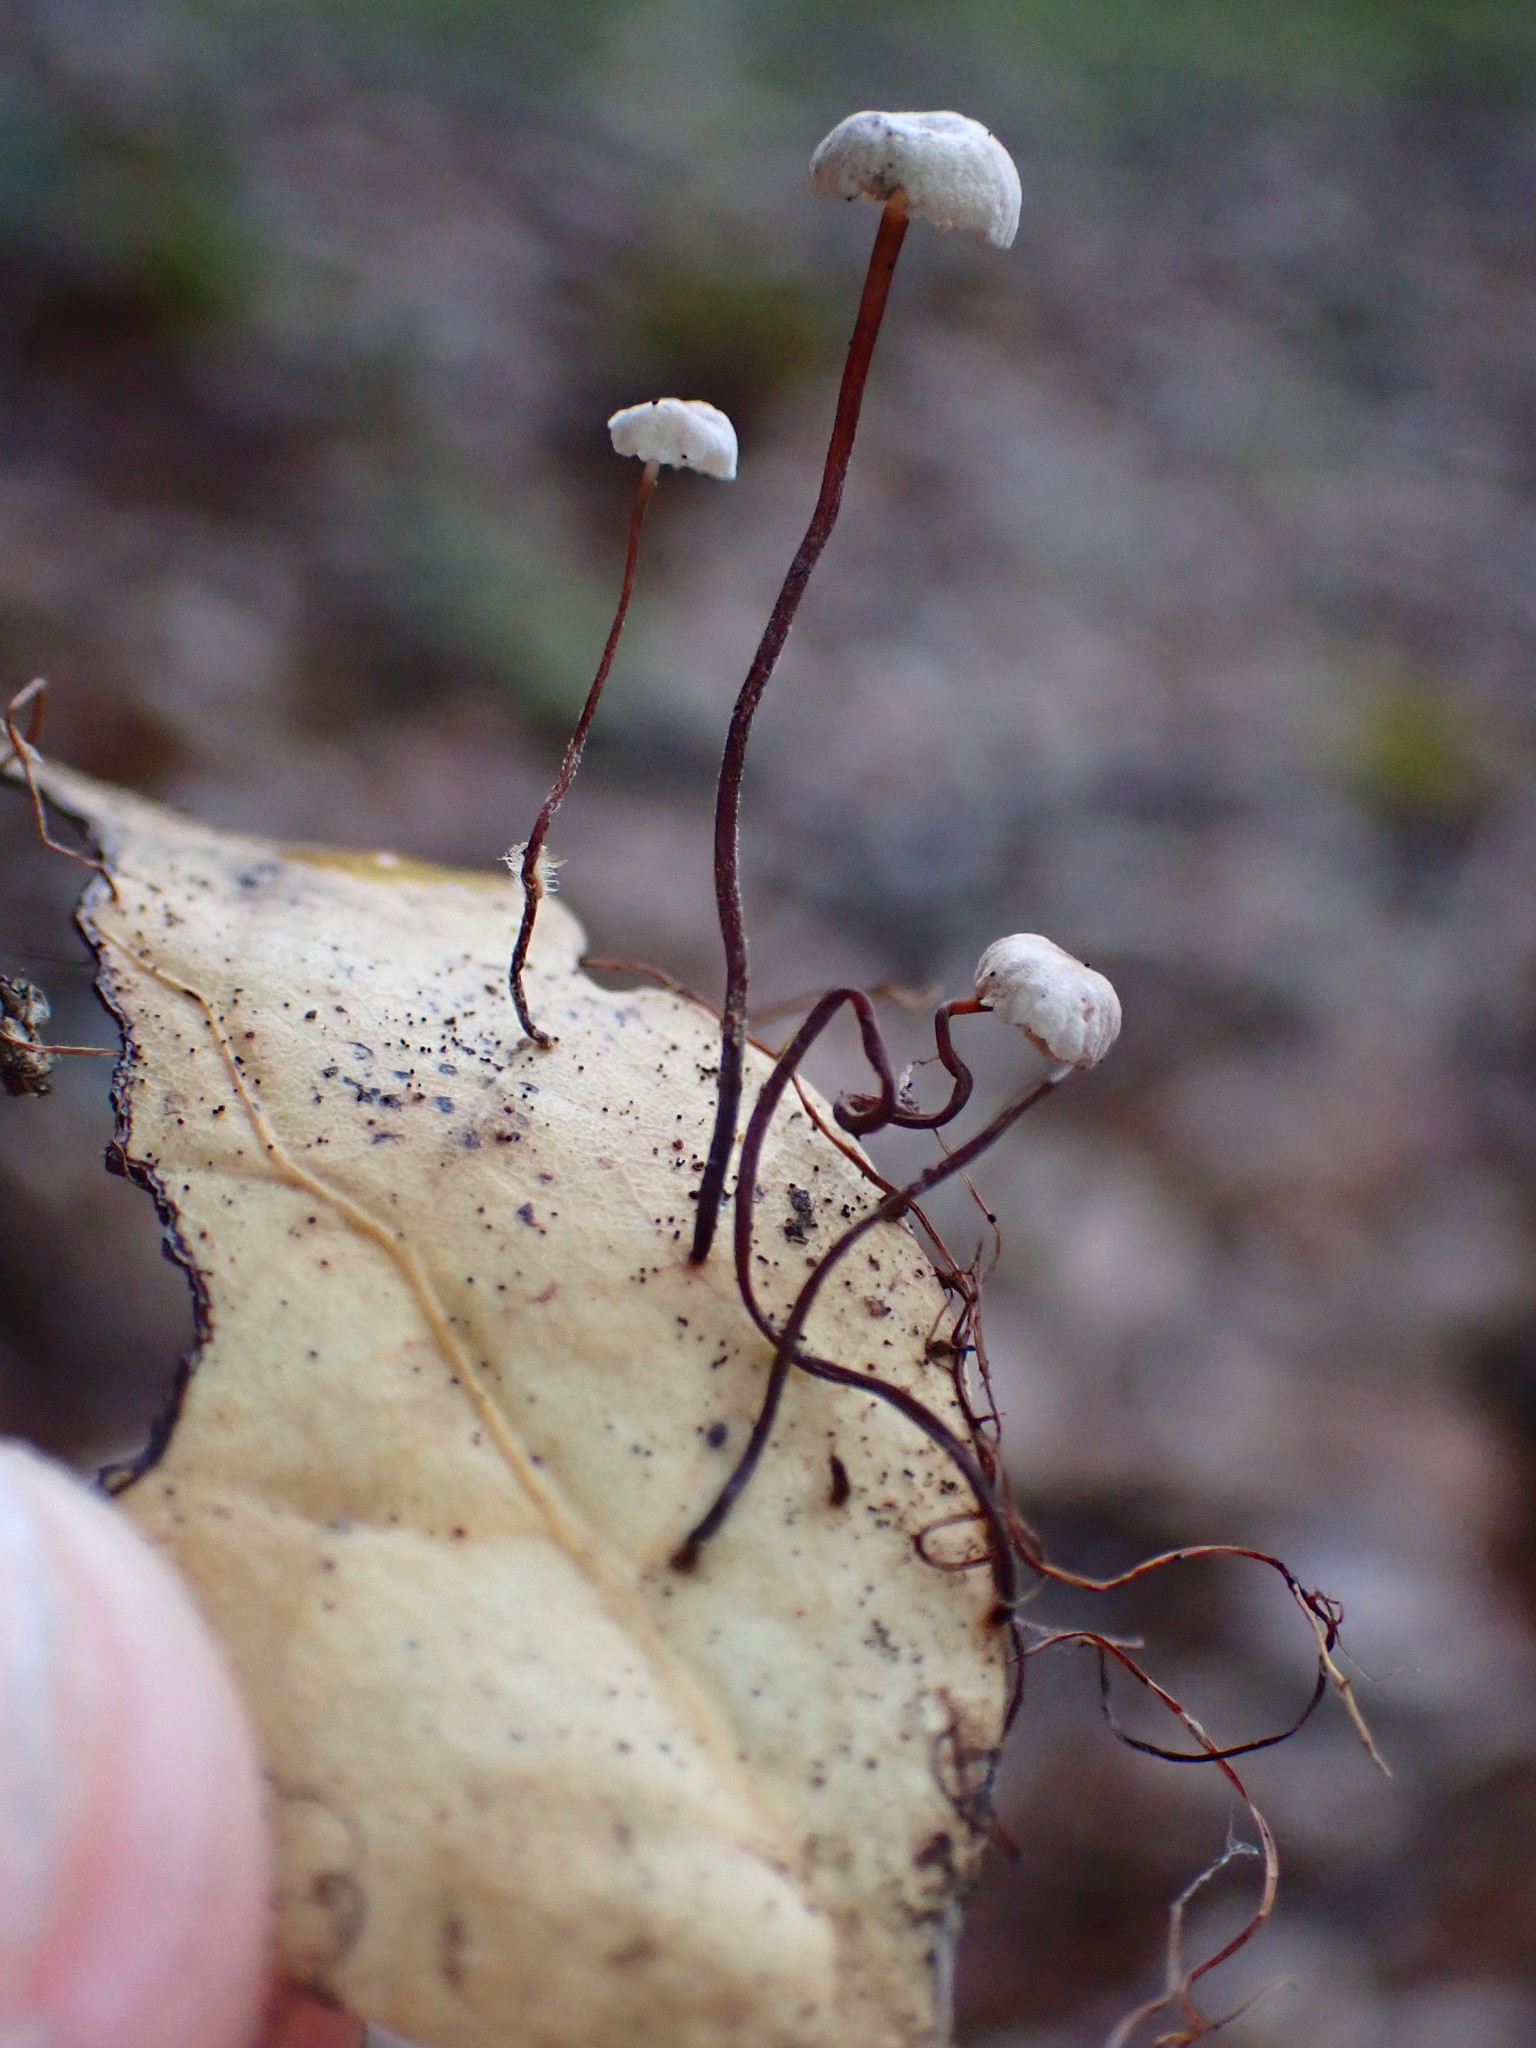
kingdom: Fungi
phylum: Basidiomycota
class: Agaricomycetes
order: Agaricales
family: Omphalotaceae
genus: Collybiopsis
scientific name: Collybiopsis quercophila
